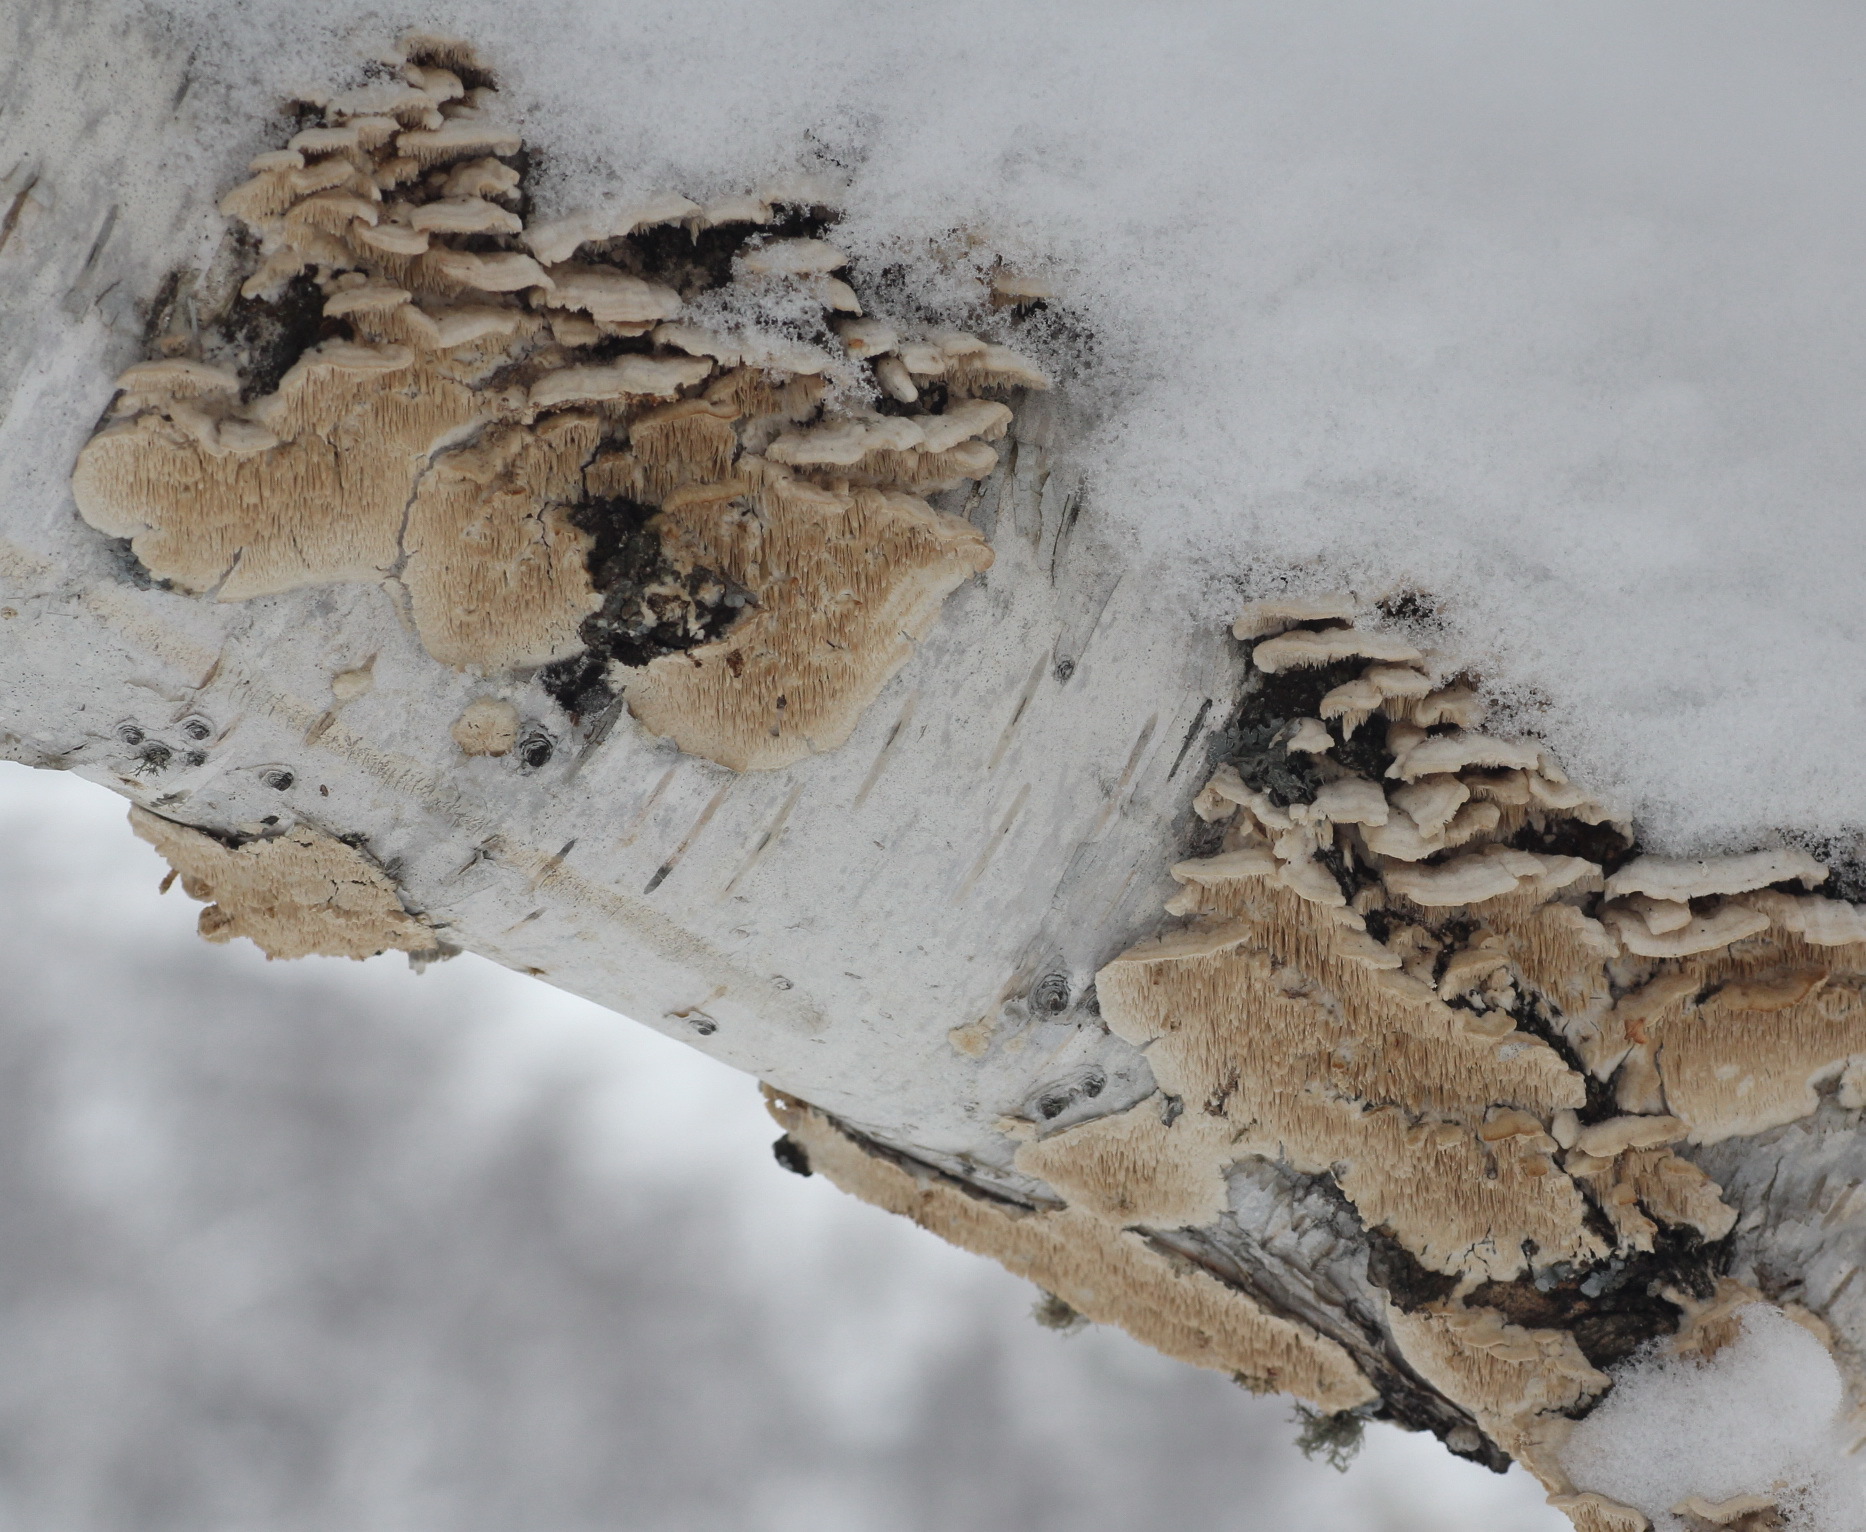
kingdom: Fungi
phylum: Basidiomycota
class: Agaricomycetes
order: Polyporales
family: Cerrenaceae
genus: Cerrena
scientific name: Cerrena unicolor
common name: Mossy maze polypore
